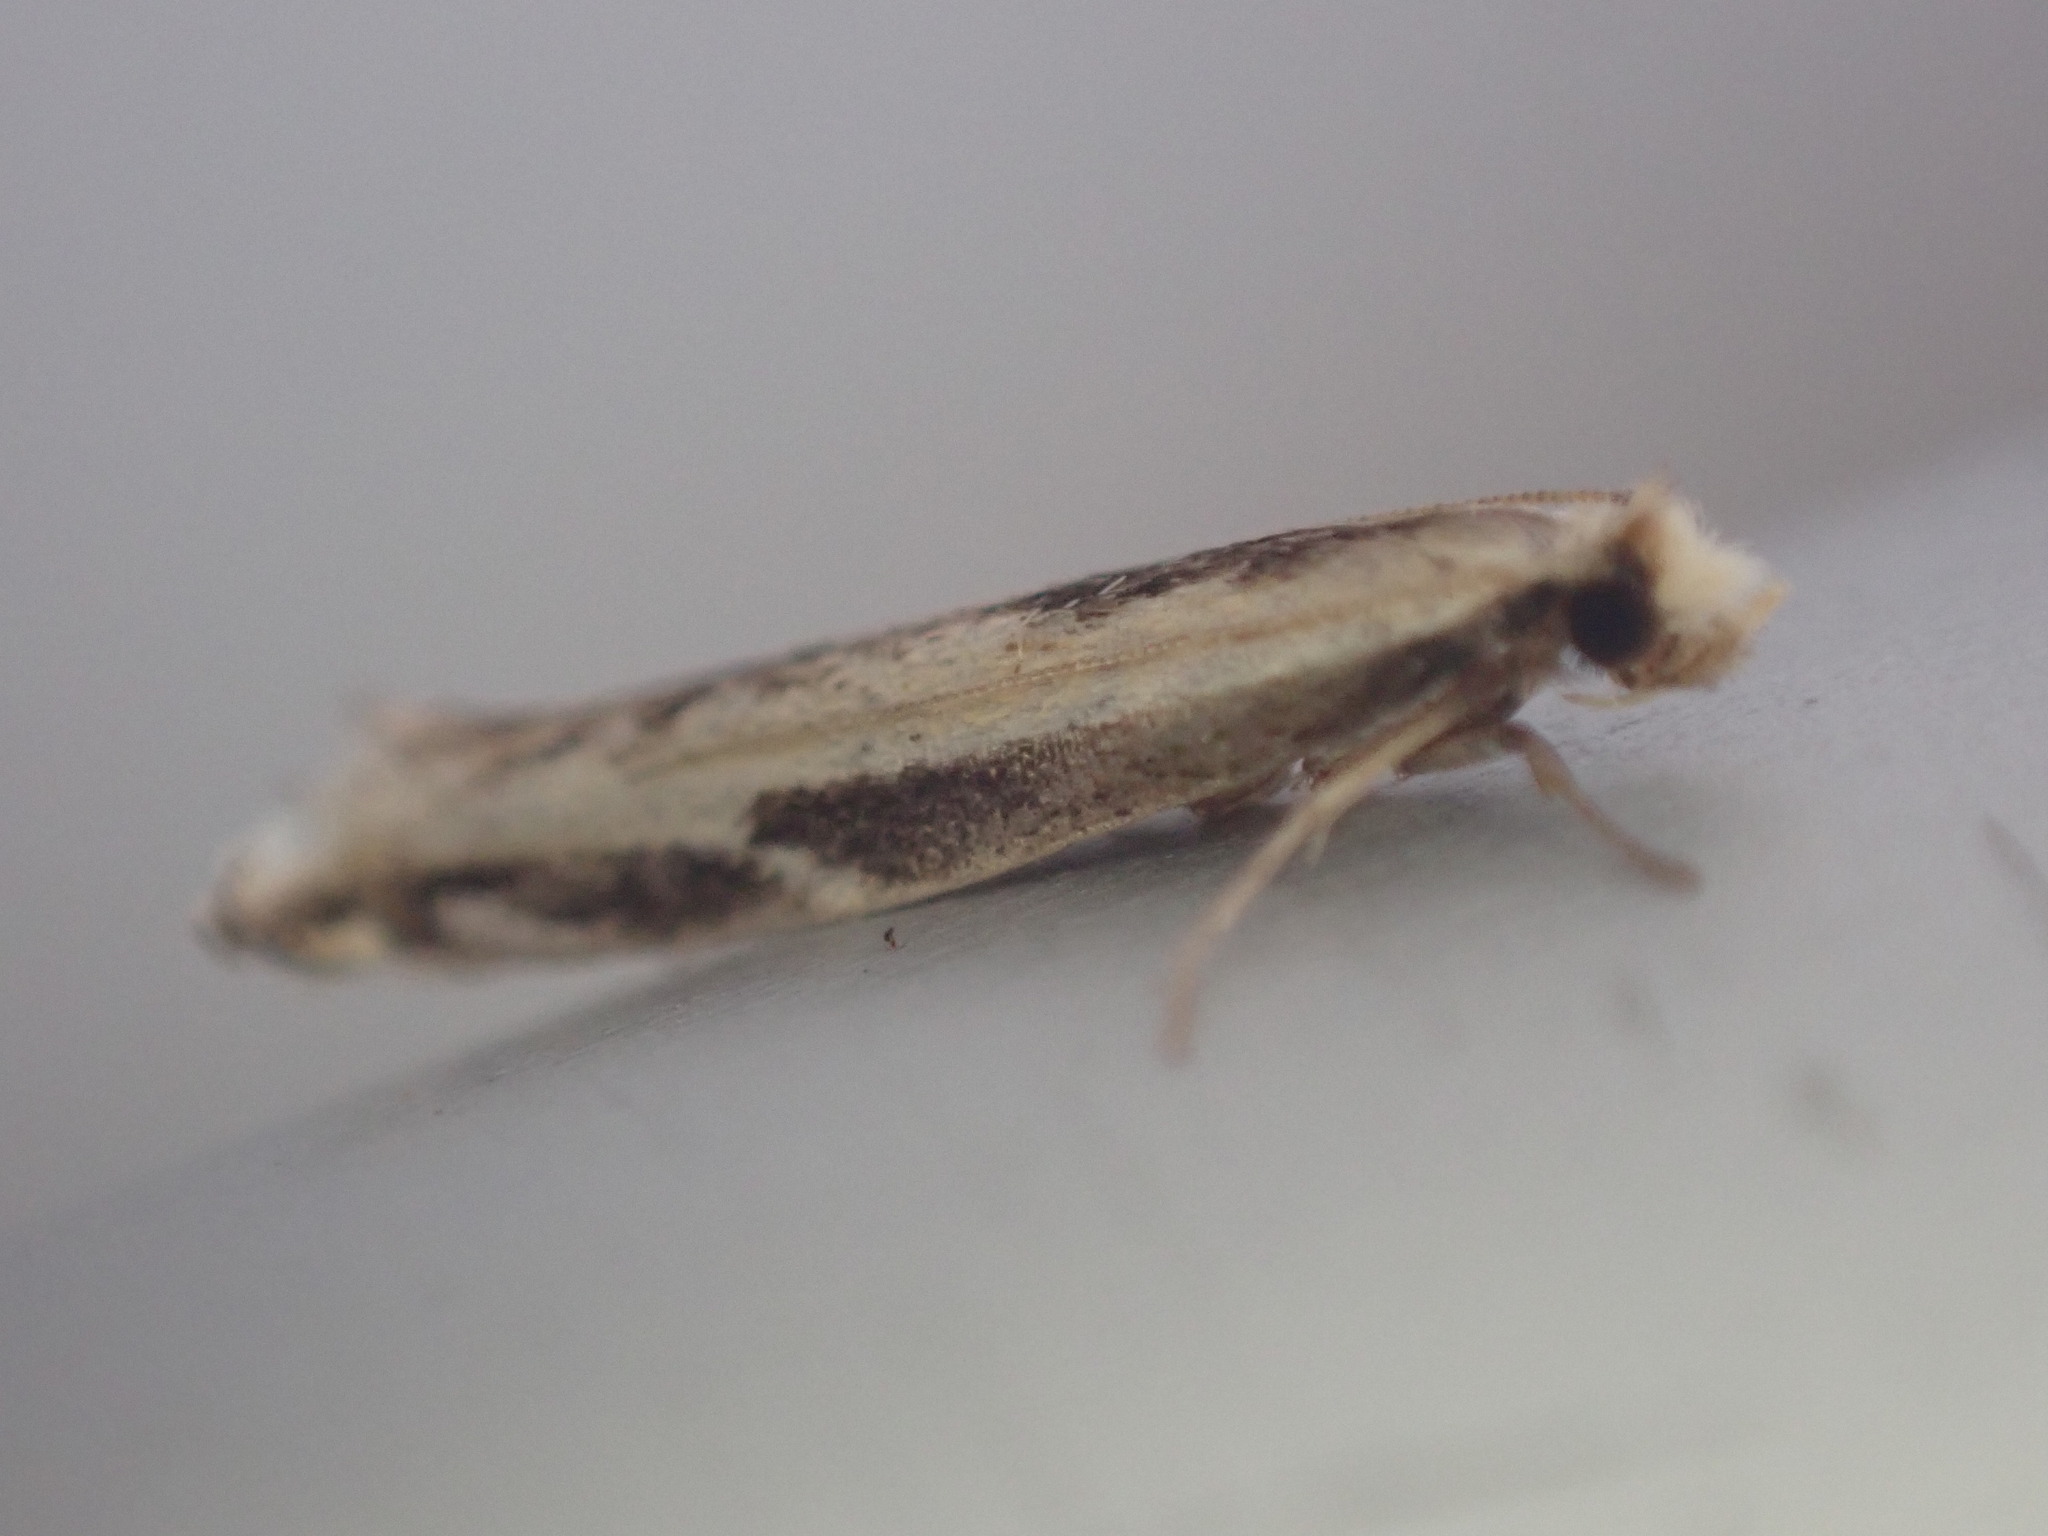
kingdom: Animalia
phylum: Arthropoda
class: Insecta
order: Lepidoptera
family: Tineidae
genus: Erechthias
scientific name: Erechthias terminella
